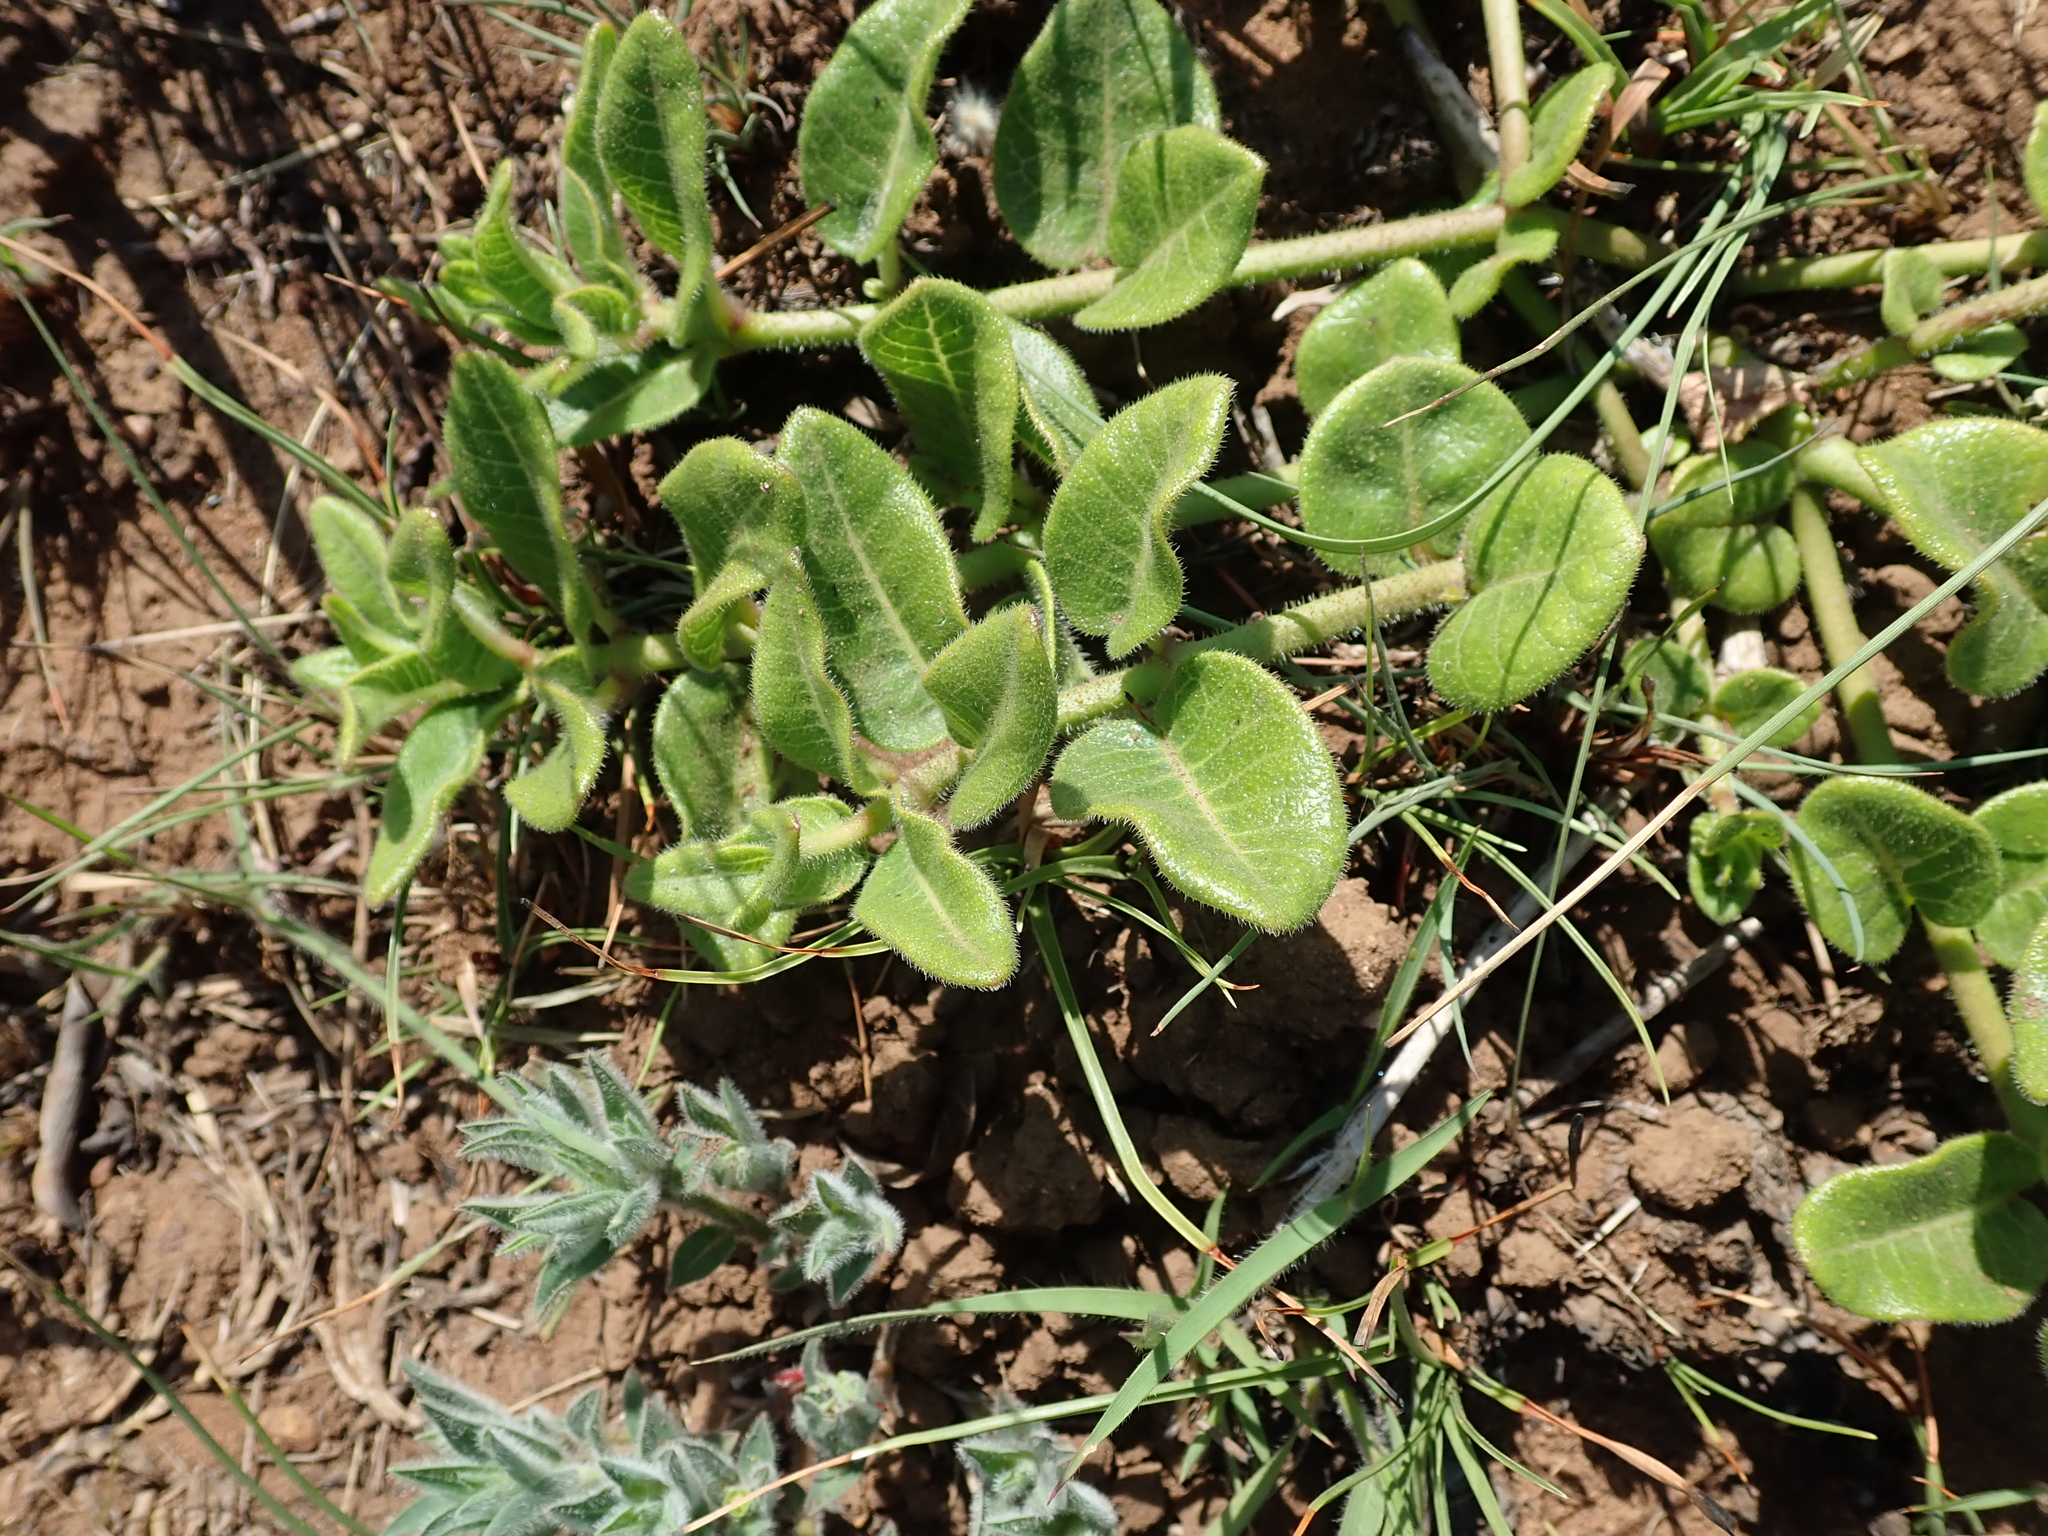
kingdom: Plantae
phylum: Tracheophyta
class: Magnoliopsida
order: Gentianales
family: Apocynaceae
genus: Asclepias
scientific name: Asclepias albens
